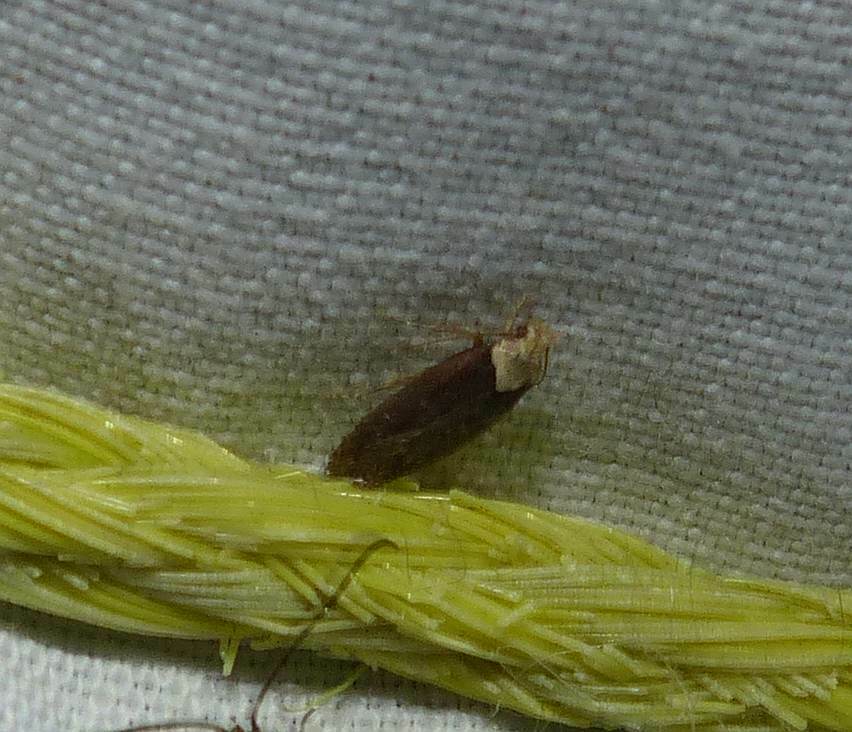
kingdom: Animalia
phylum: Arthropoda
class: Insecta
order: Lepidoptera
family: Depressariidae
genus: Depressaria
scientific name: Depressaria depressana
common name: Lost flat-body
